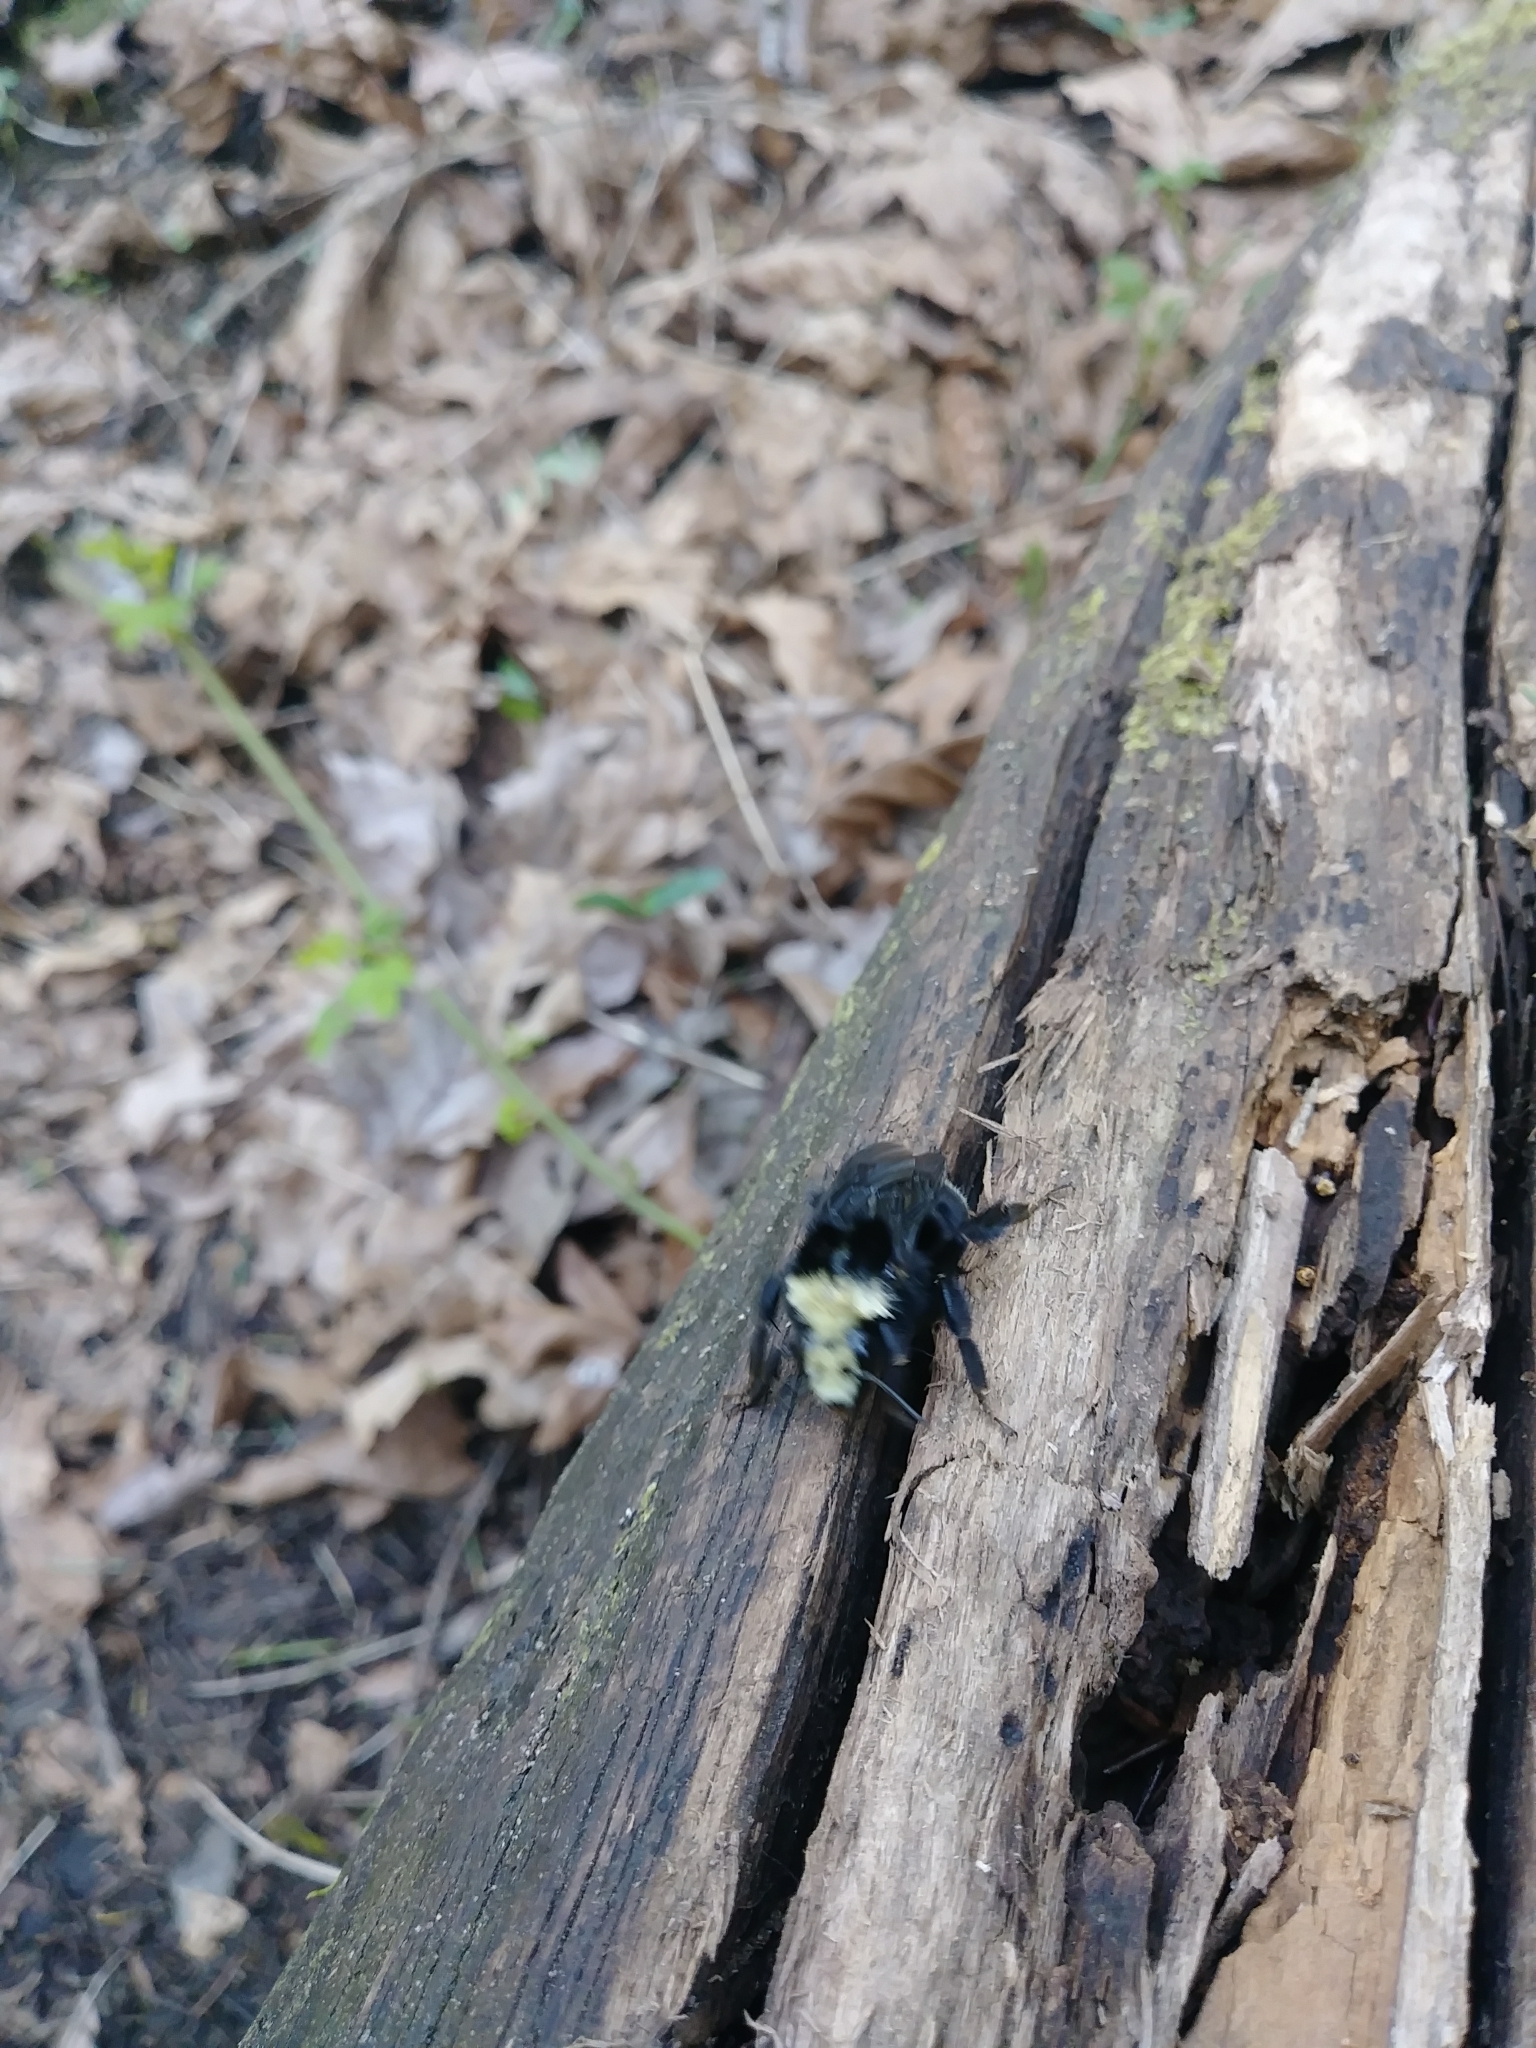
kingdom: Animalia
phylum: Arthropoda
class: Insecta
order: Hymenoptera
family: Apidae
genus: Bombus
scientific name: Bombus vosnesenskii
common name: Vosnesensky bumble bee
